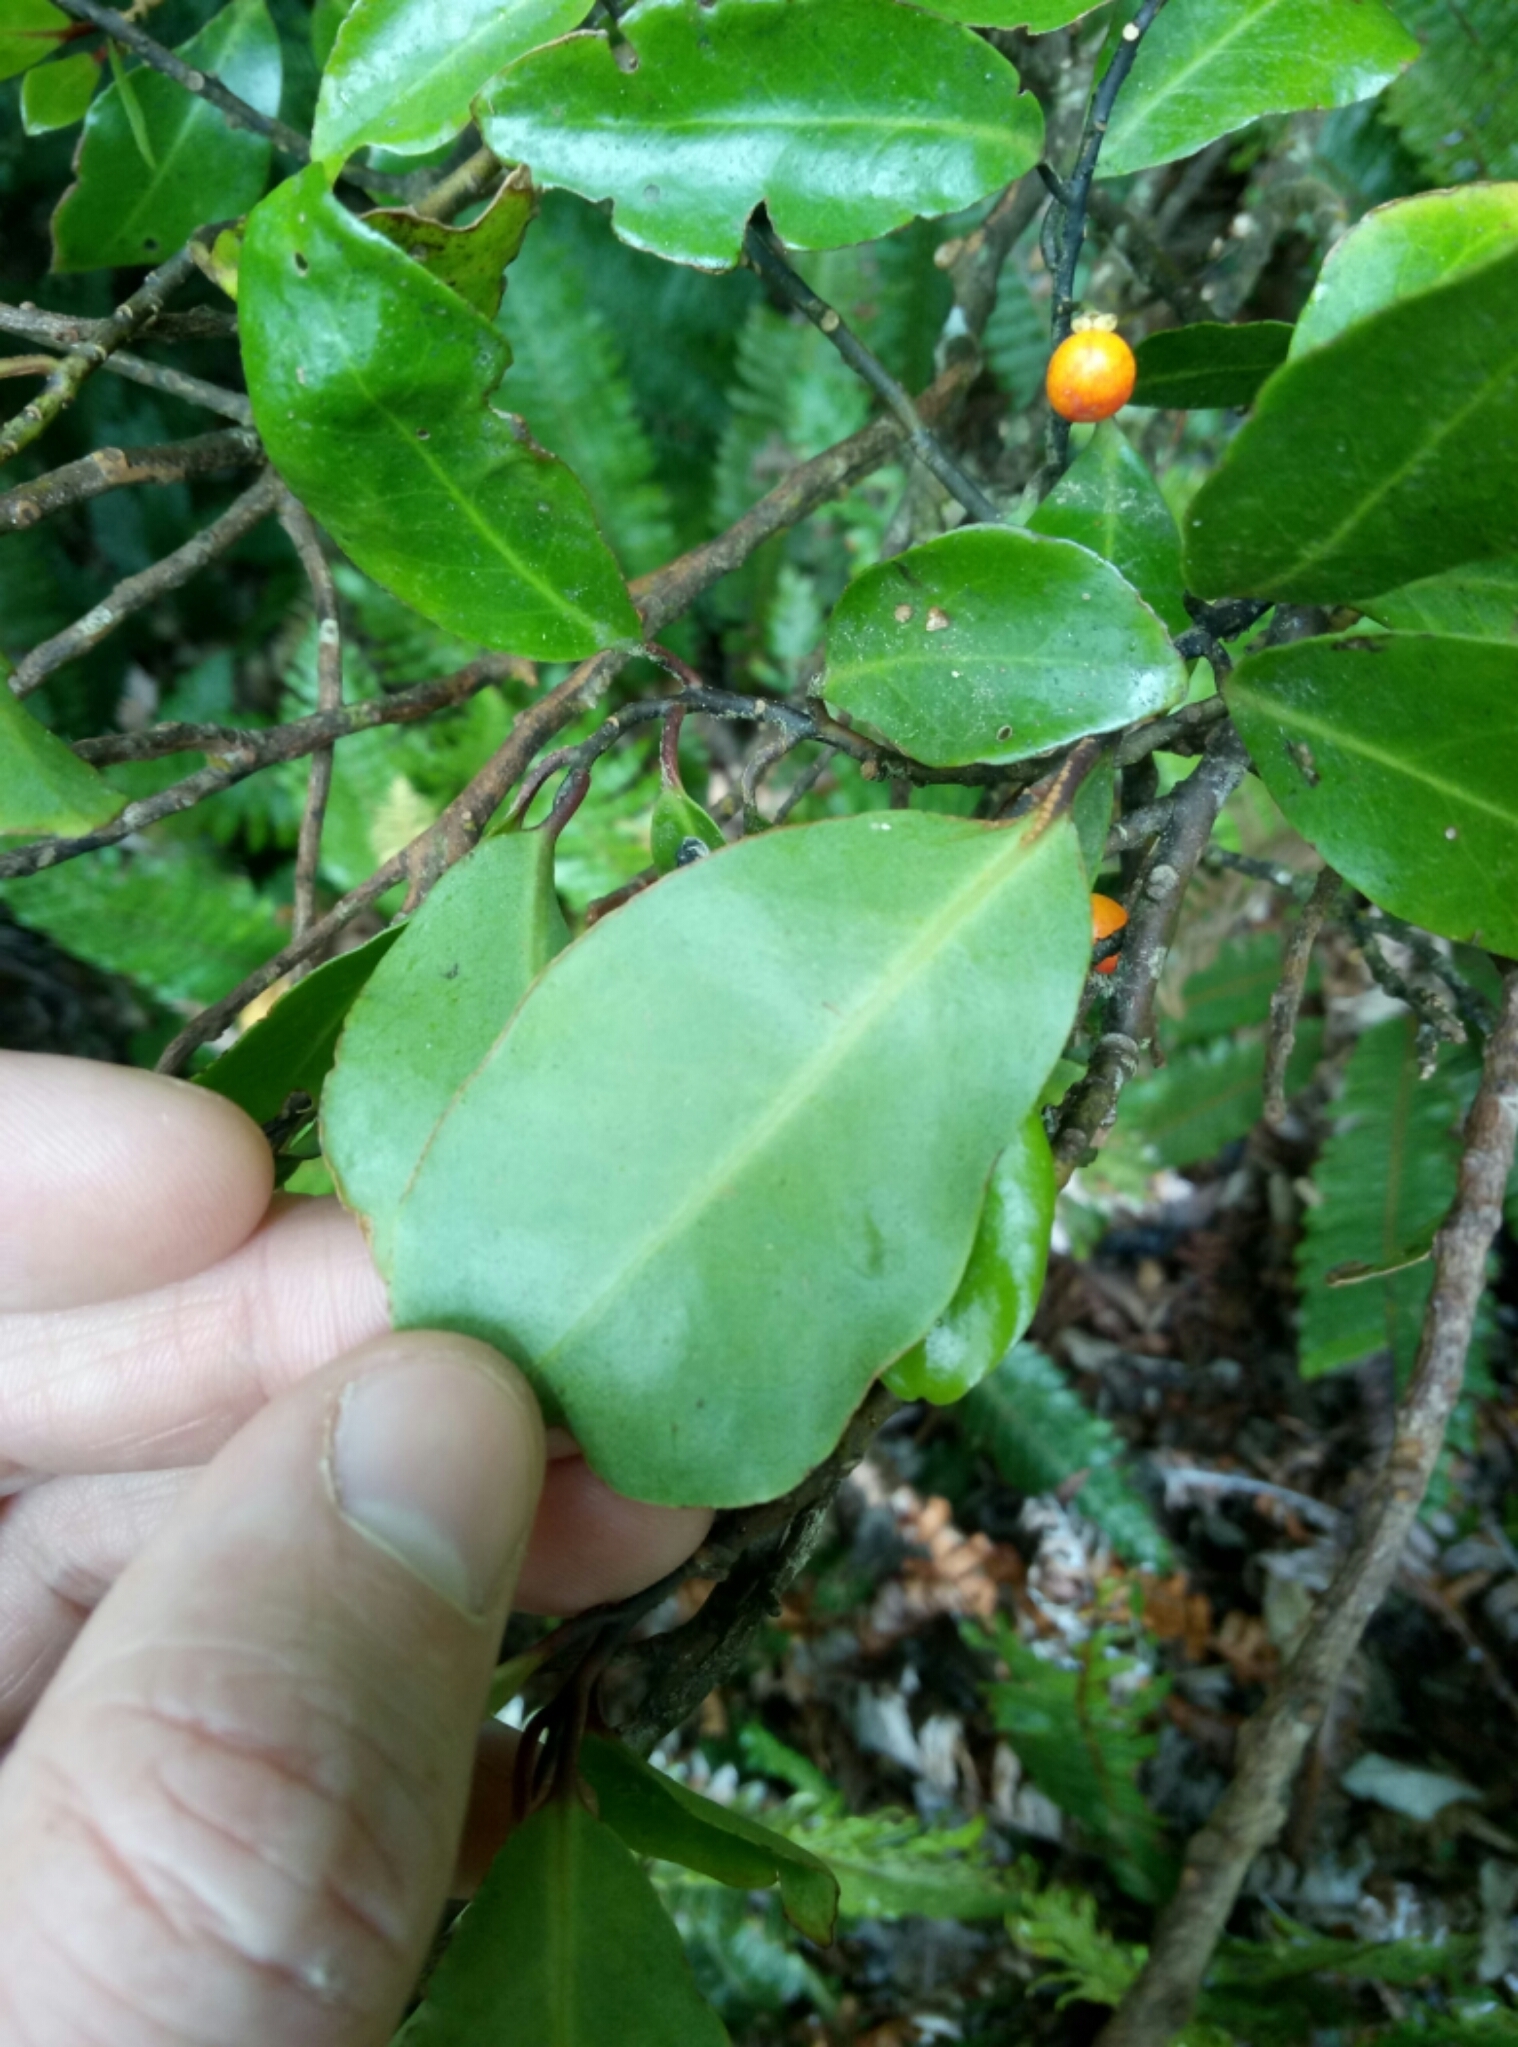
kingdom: Plantae
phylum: Tracheophyta
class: Magnoliopsida
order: Canellales
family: Winteraceae
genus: Pseudowintera
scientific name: Pseudowintera axillaris
